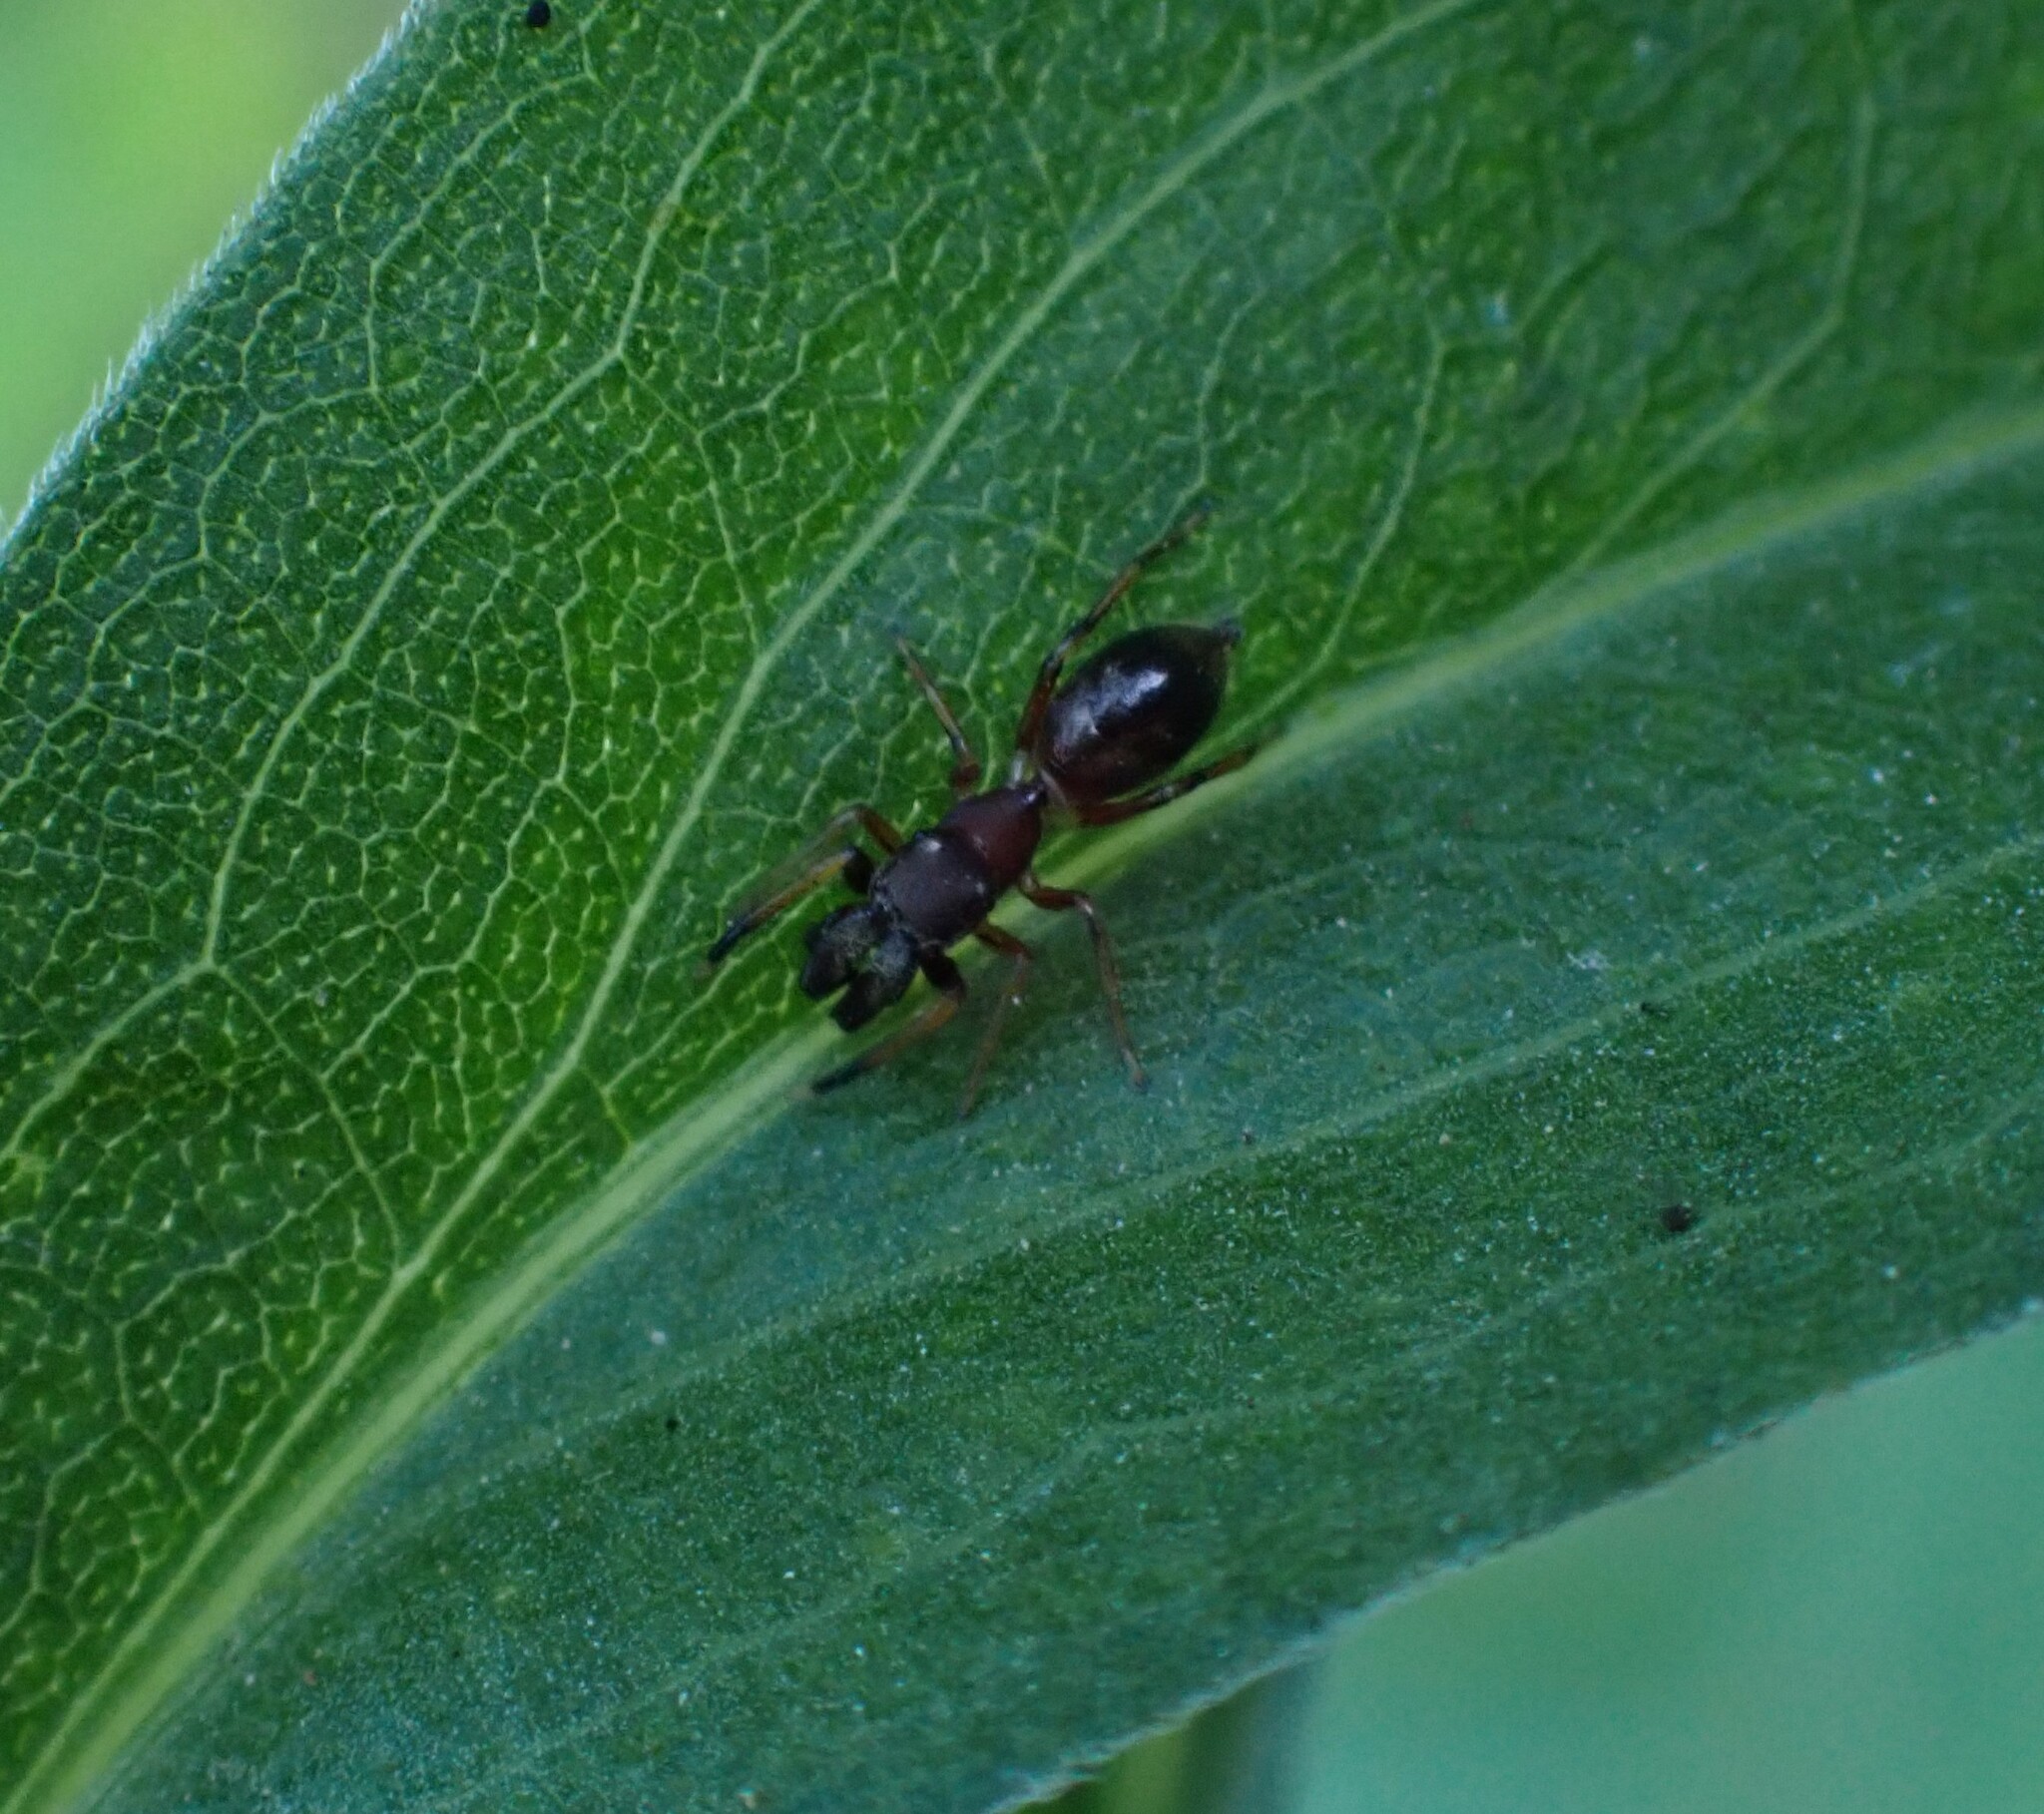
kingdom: Animalia
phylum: Arthropoda
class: Arachnida
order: Araneae
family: Salticidae
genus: Myrmarachne
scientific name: Myrmarachne formicaria
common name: Ant mimic jumping spider
